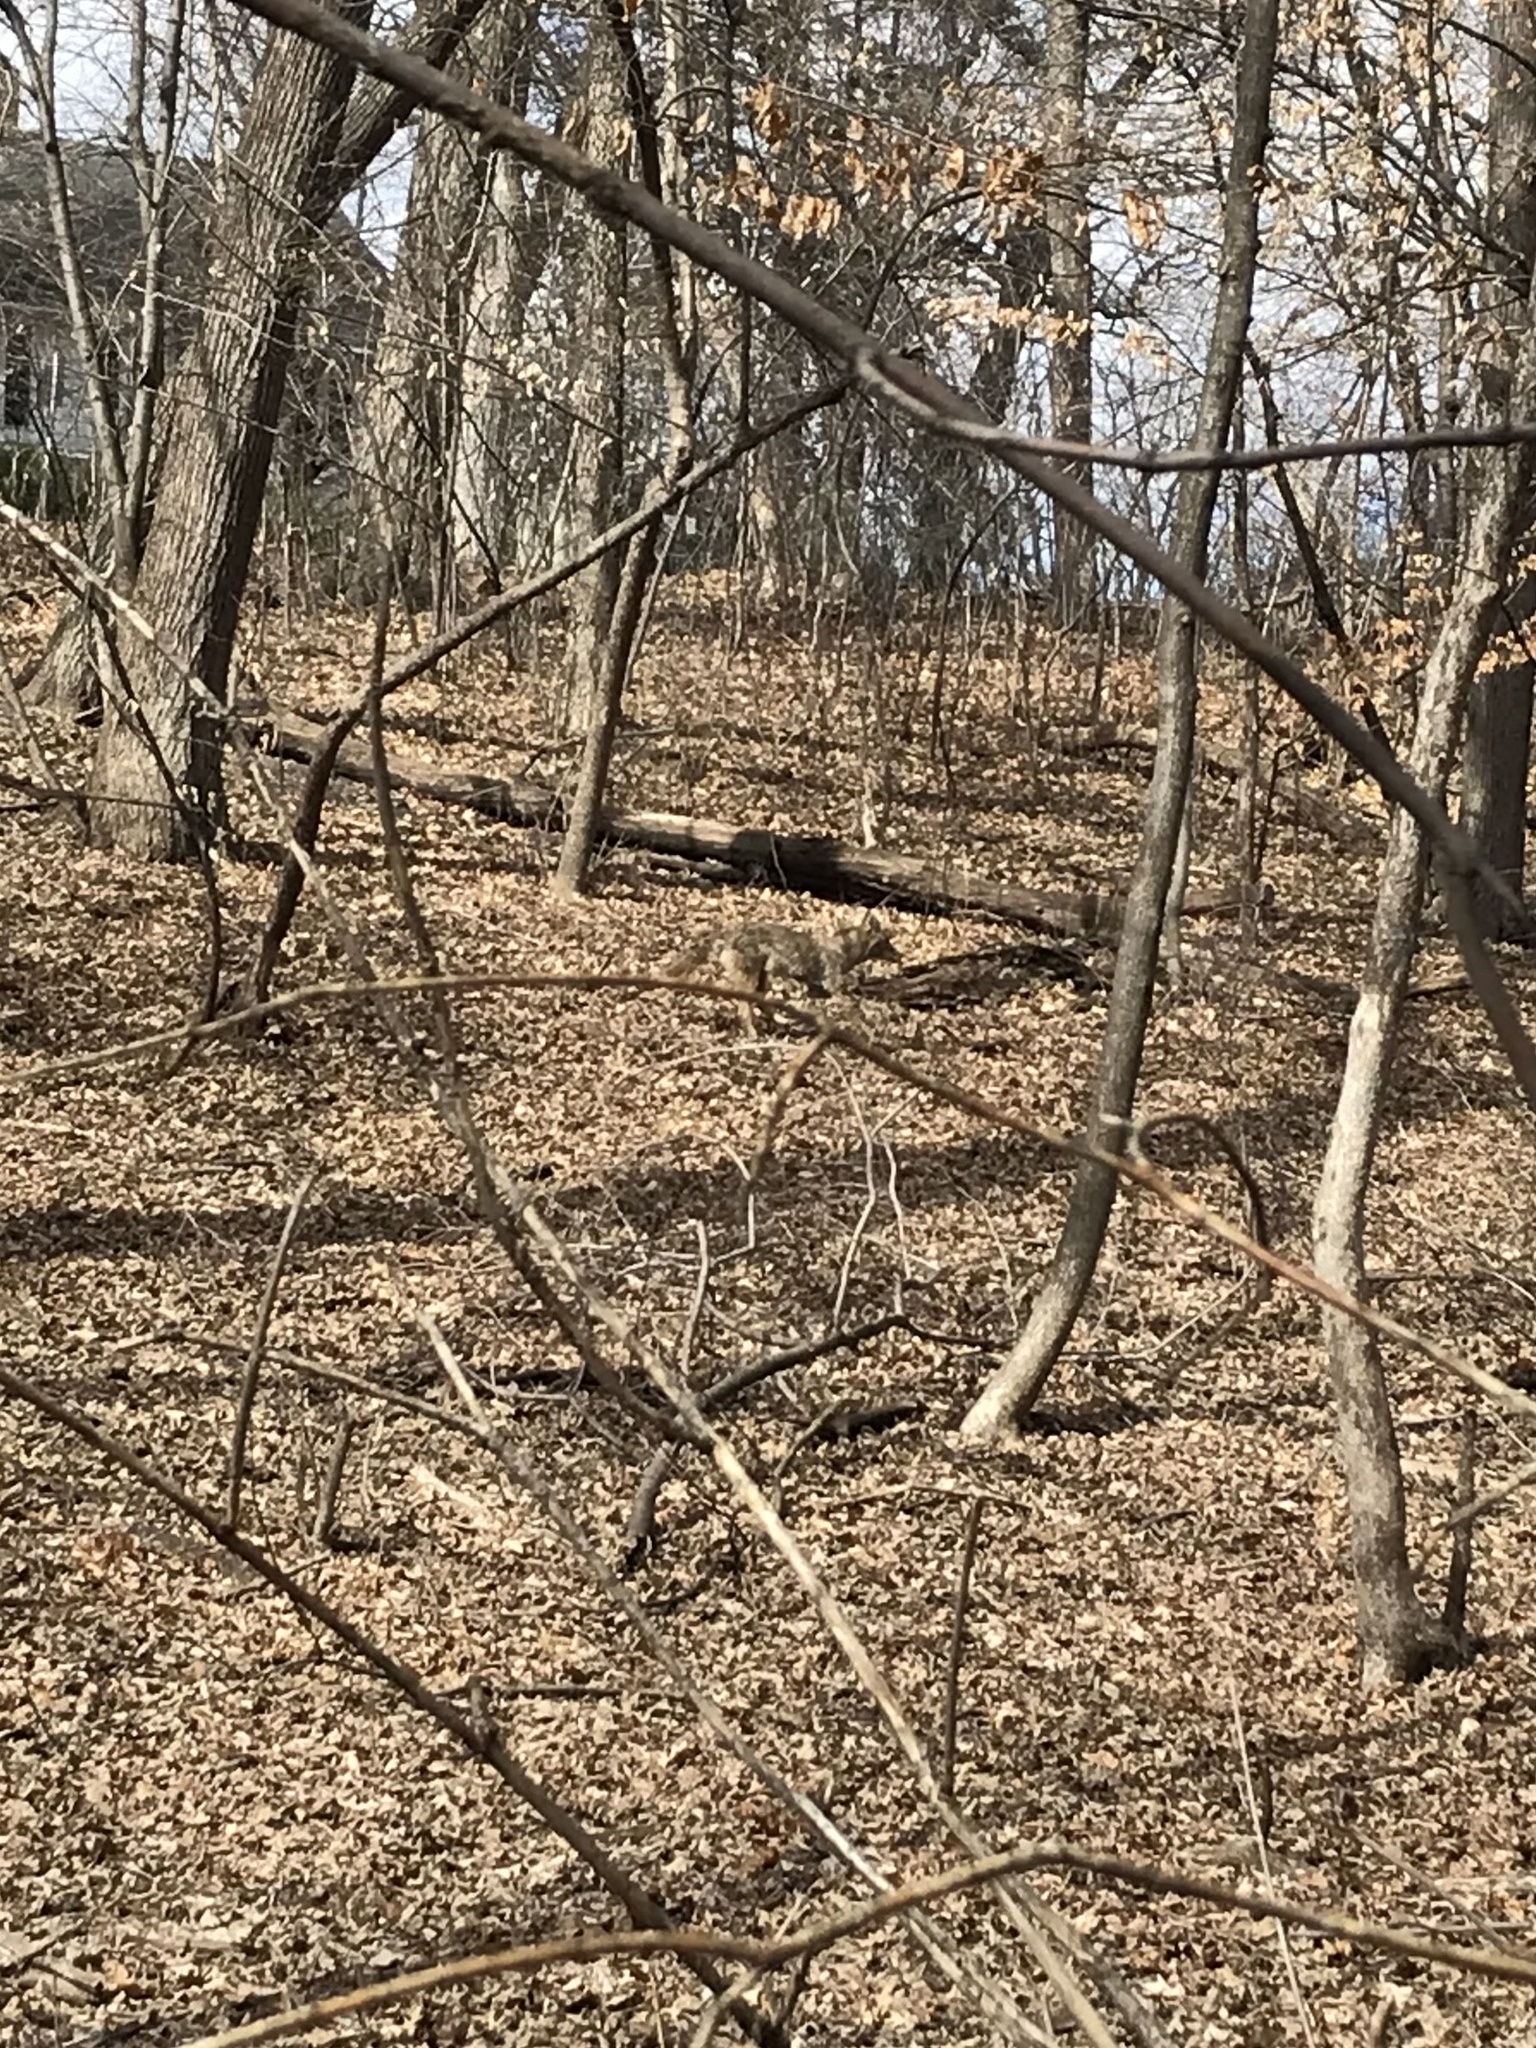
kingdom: Animalia
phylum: Chordata
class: Mammalia
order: Carnivora
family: Canidae
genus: Canis
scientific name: Canis latrans
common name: Coyote
